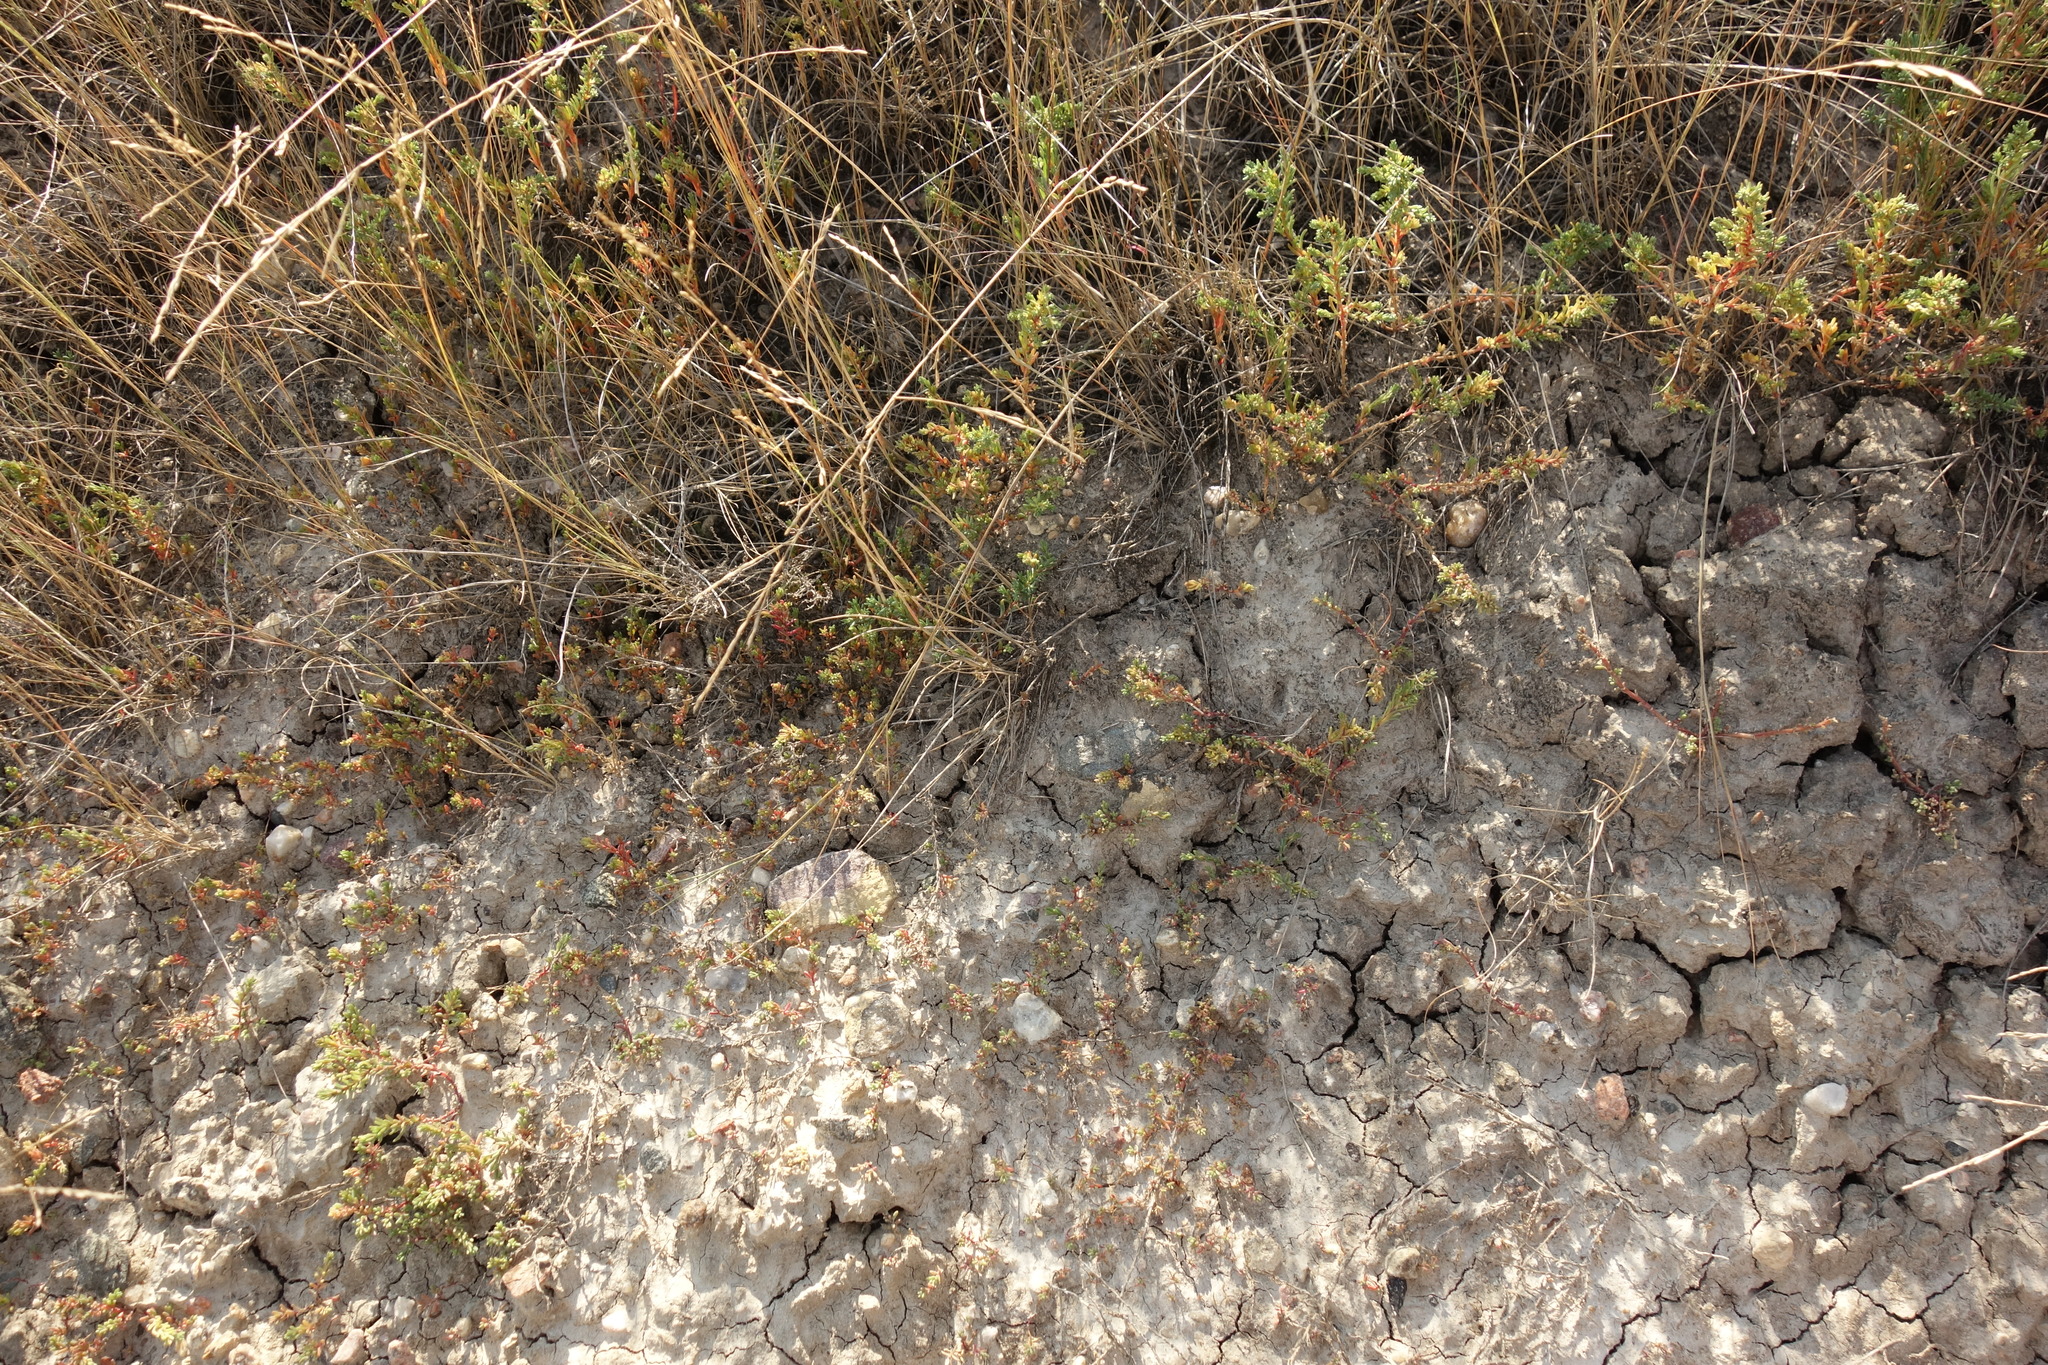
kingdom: Plantae
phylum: Tracheophyta
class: Magnoliopsida
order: Caryophyllales
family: Amaranthaceae
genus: Suaeda
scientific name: Suaeda prostrata
